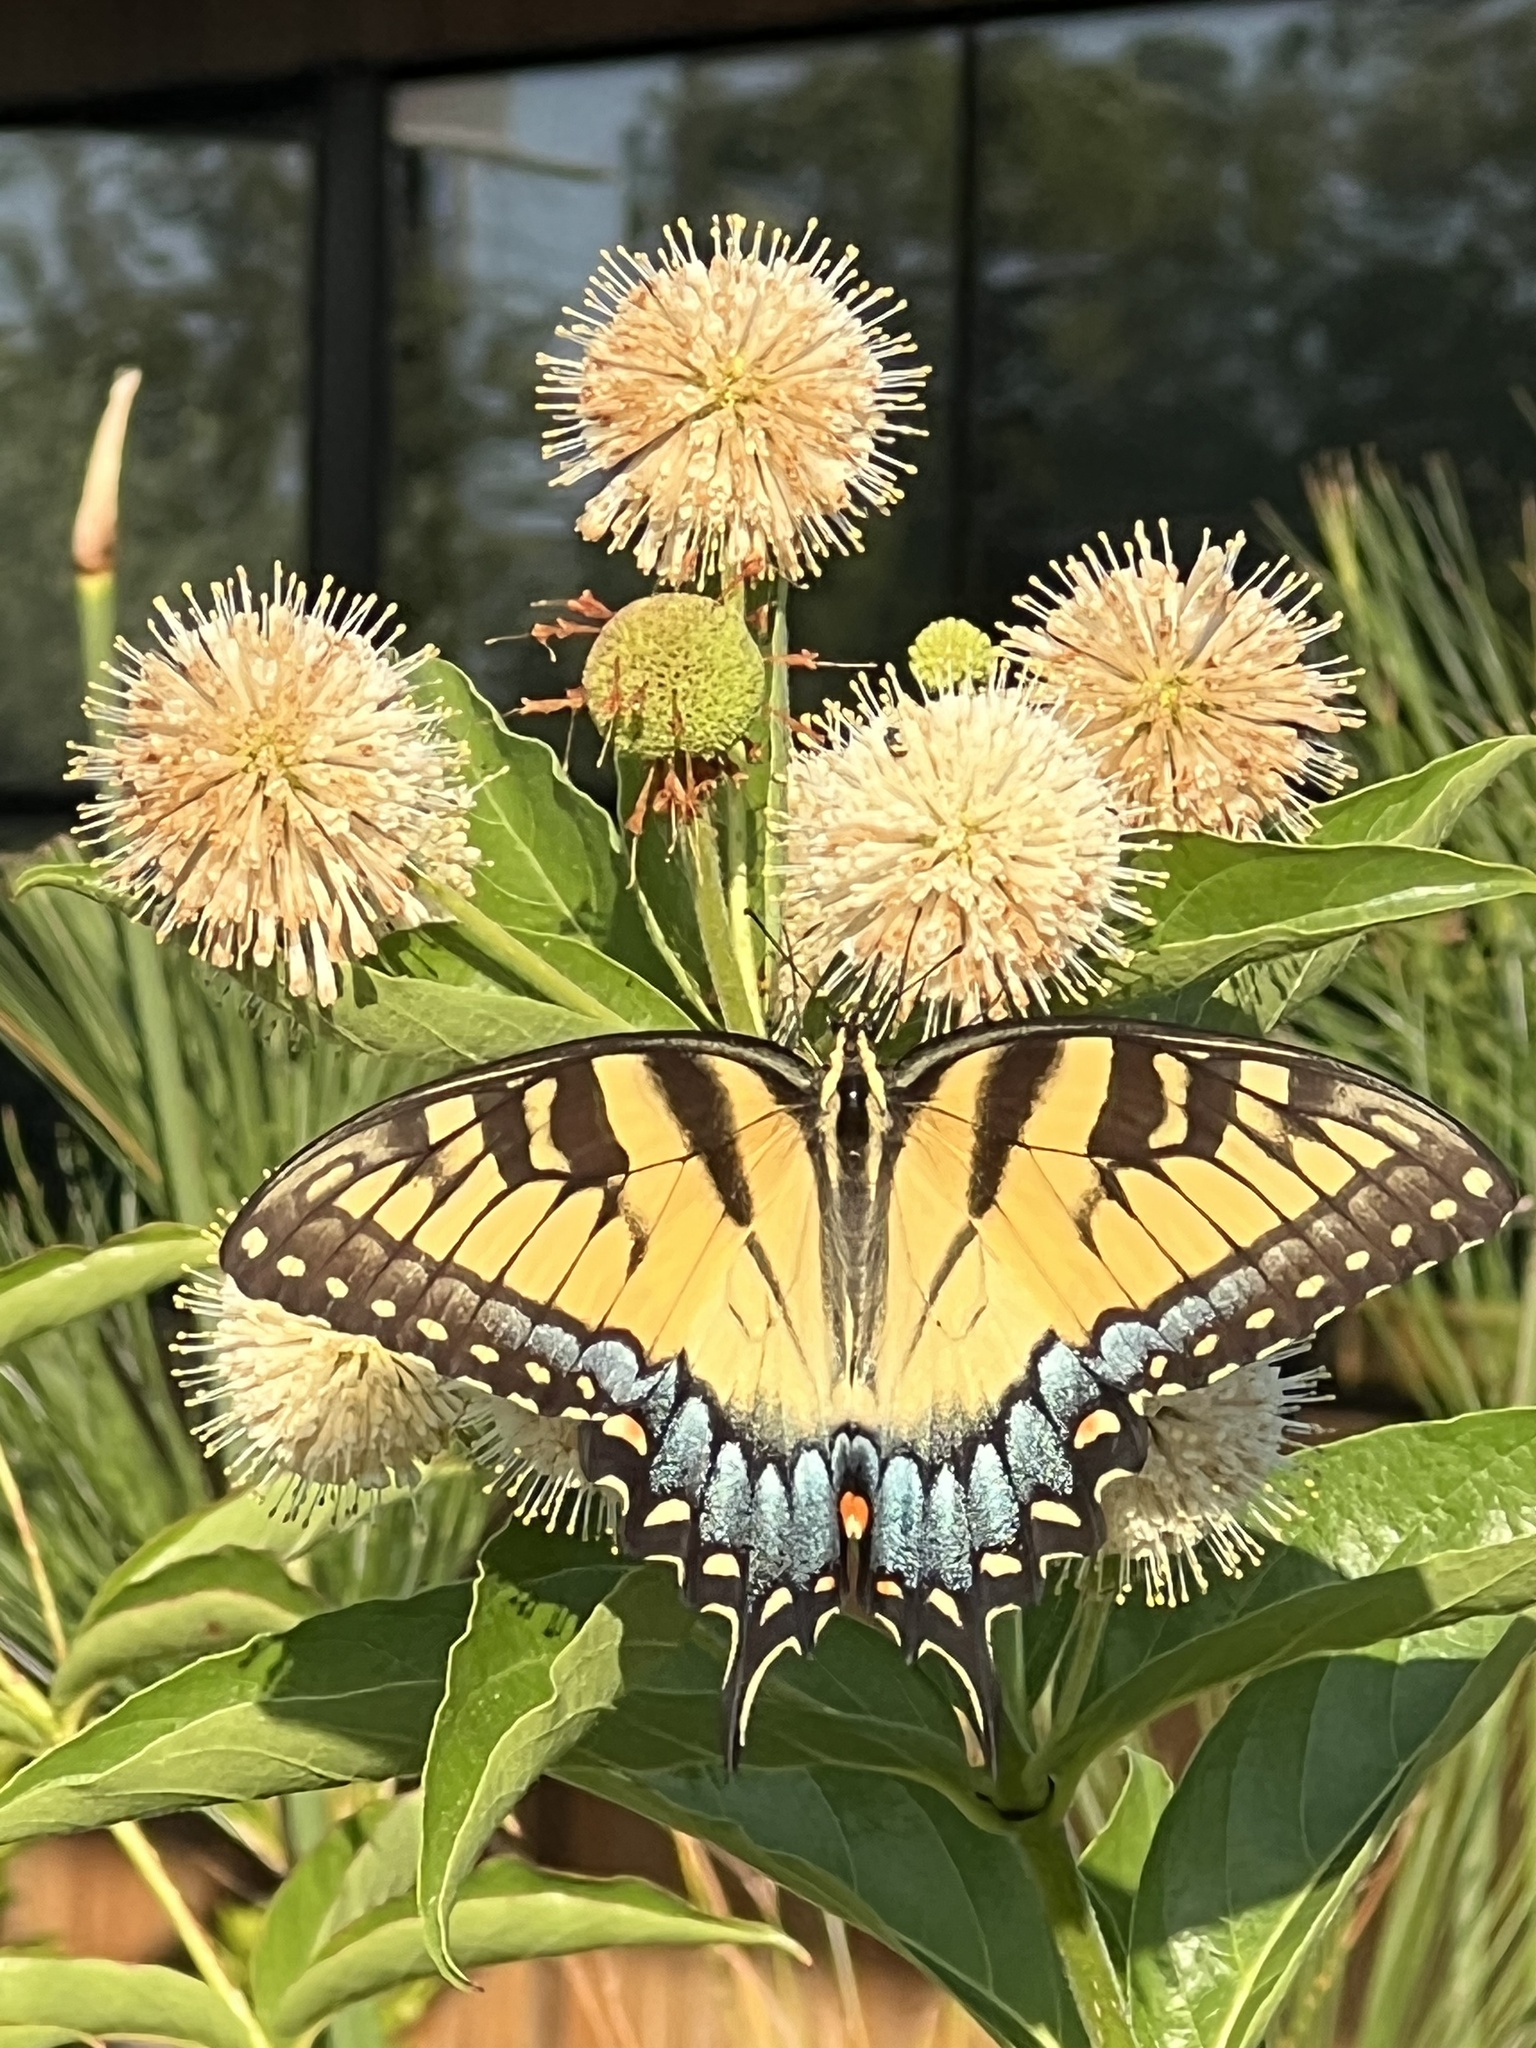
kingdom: Animalia
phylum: Arthropoda
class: Insecta
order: Lepidoptera
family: Papilionidae
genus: Papilio
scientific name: Papilio glaucus
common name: Tiger swallowtail
